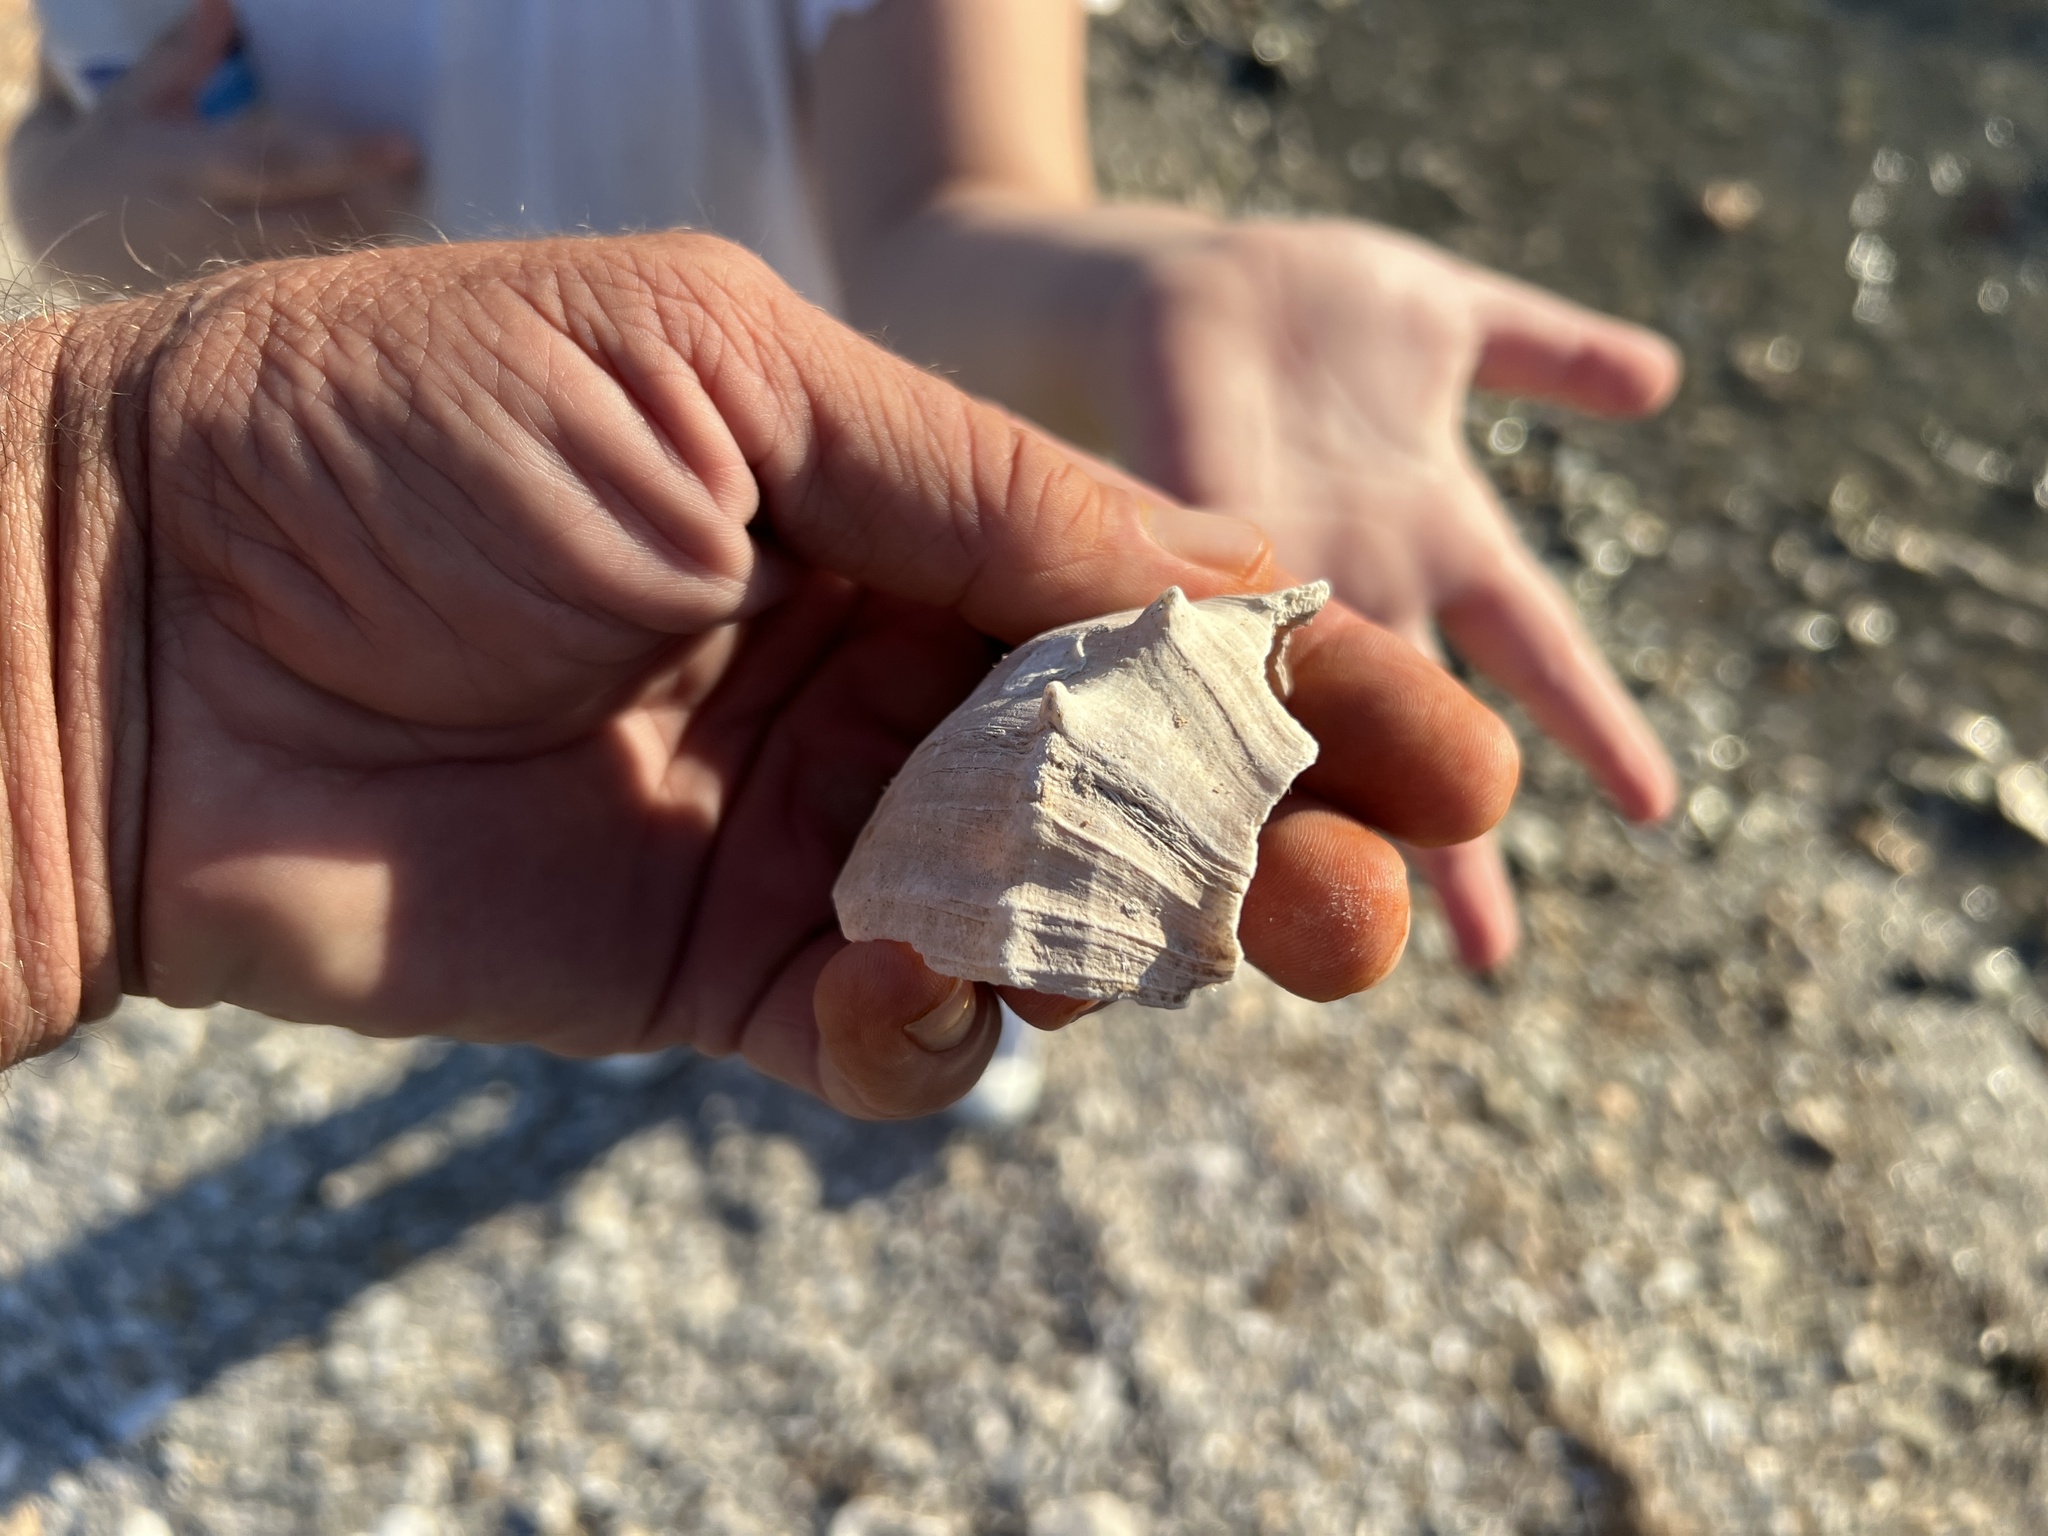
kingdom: Animalia
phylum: Mollusca
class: Gastropoda
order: Neogastropoda
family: Busyconidae
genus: Sinistrofulgur
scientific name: Sinistrofulgur pulleyi
